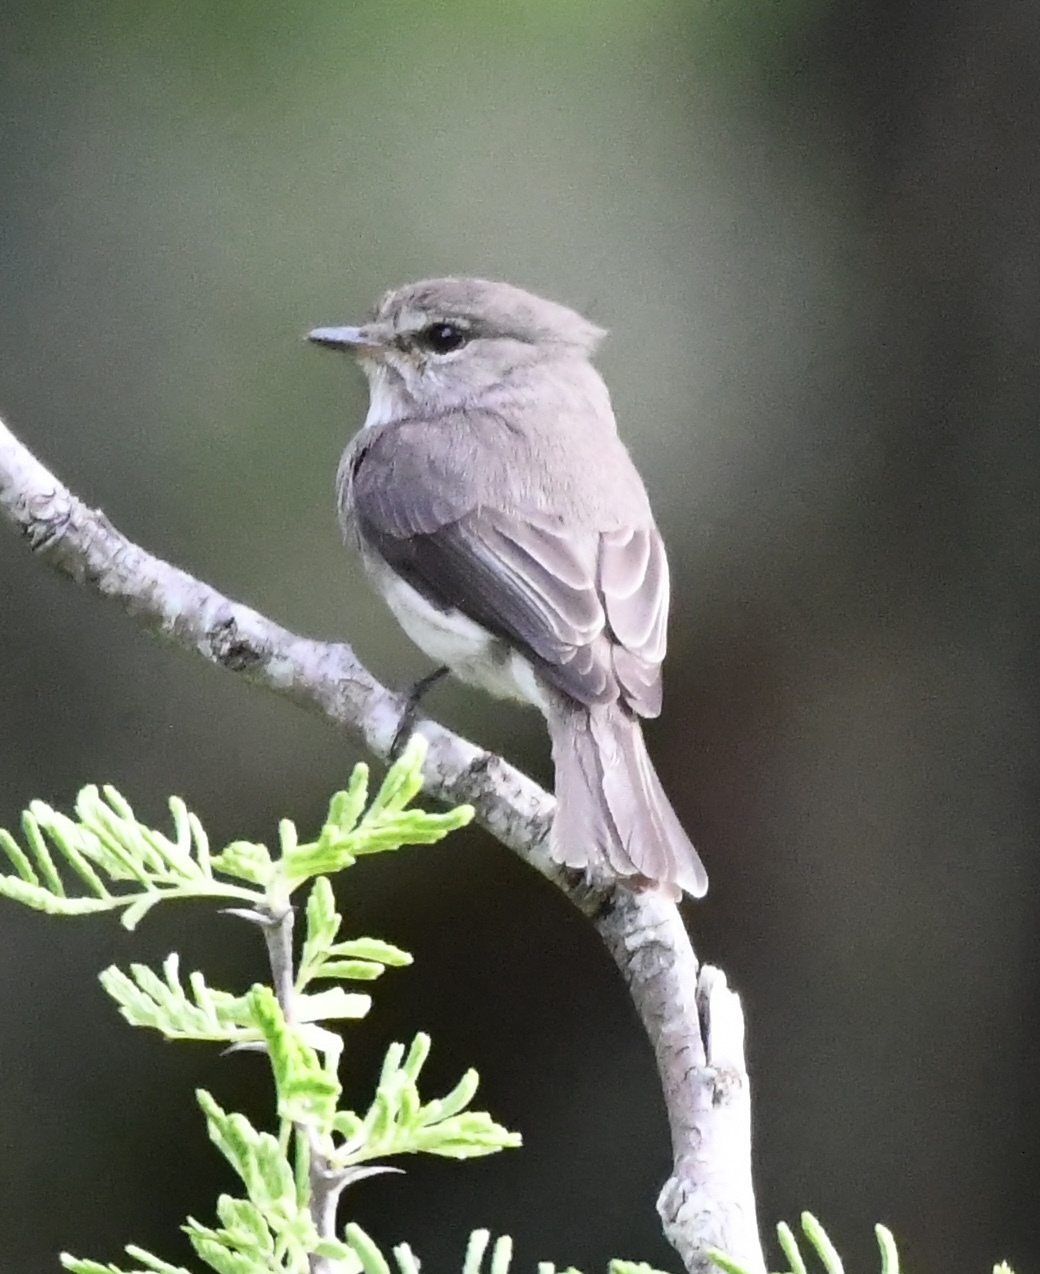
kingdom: Animalia
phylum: Chordata
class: Aves
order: Passeriformes
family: Muscicapidae
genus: Muscicapa
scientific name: Muscicapa adusta
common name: African dusky flycatcher
